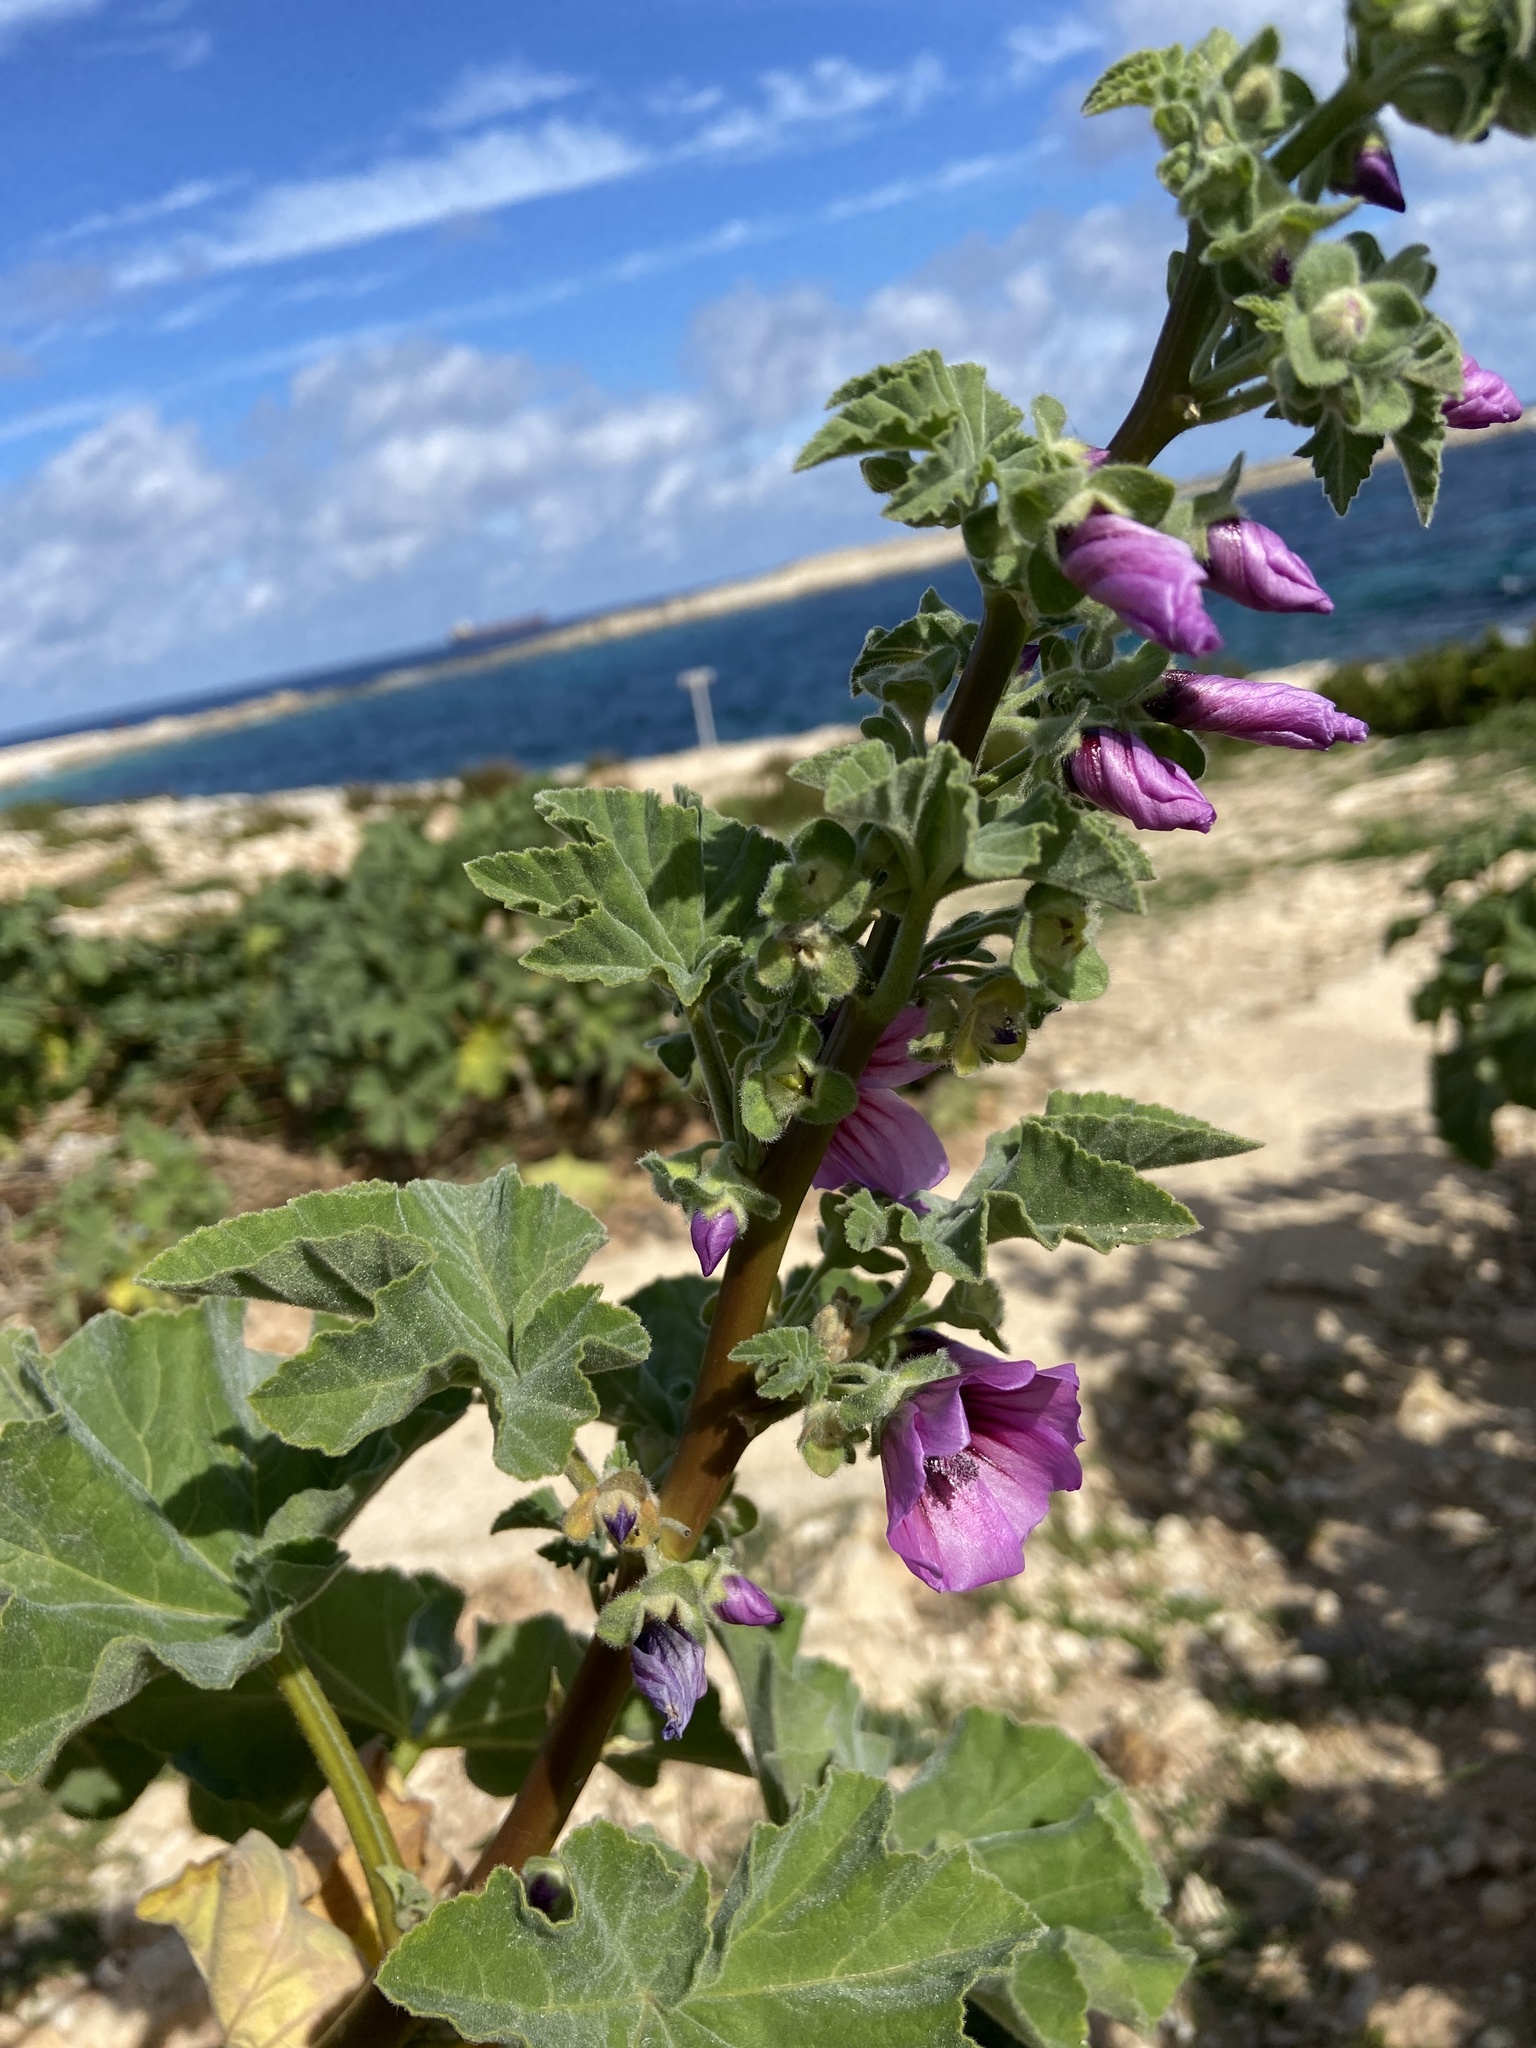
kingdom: Plantae
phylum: Tracheophyta
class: Magnoliopsida
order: Malvales
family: Malvaceae
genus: Malva
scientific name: Malva arborea
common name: Tree mallow
